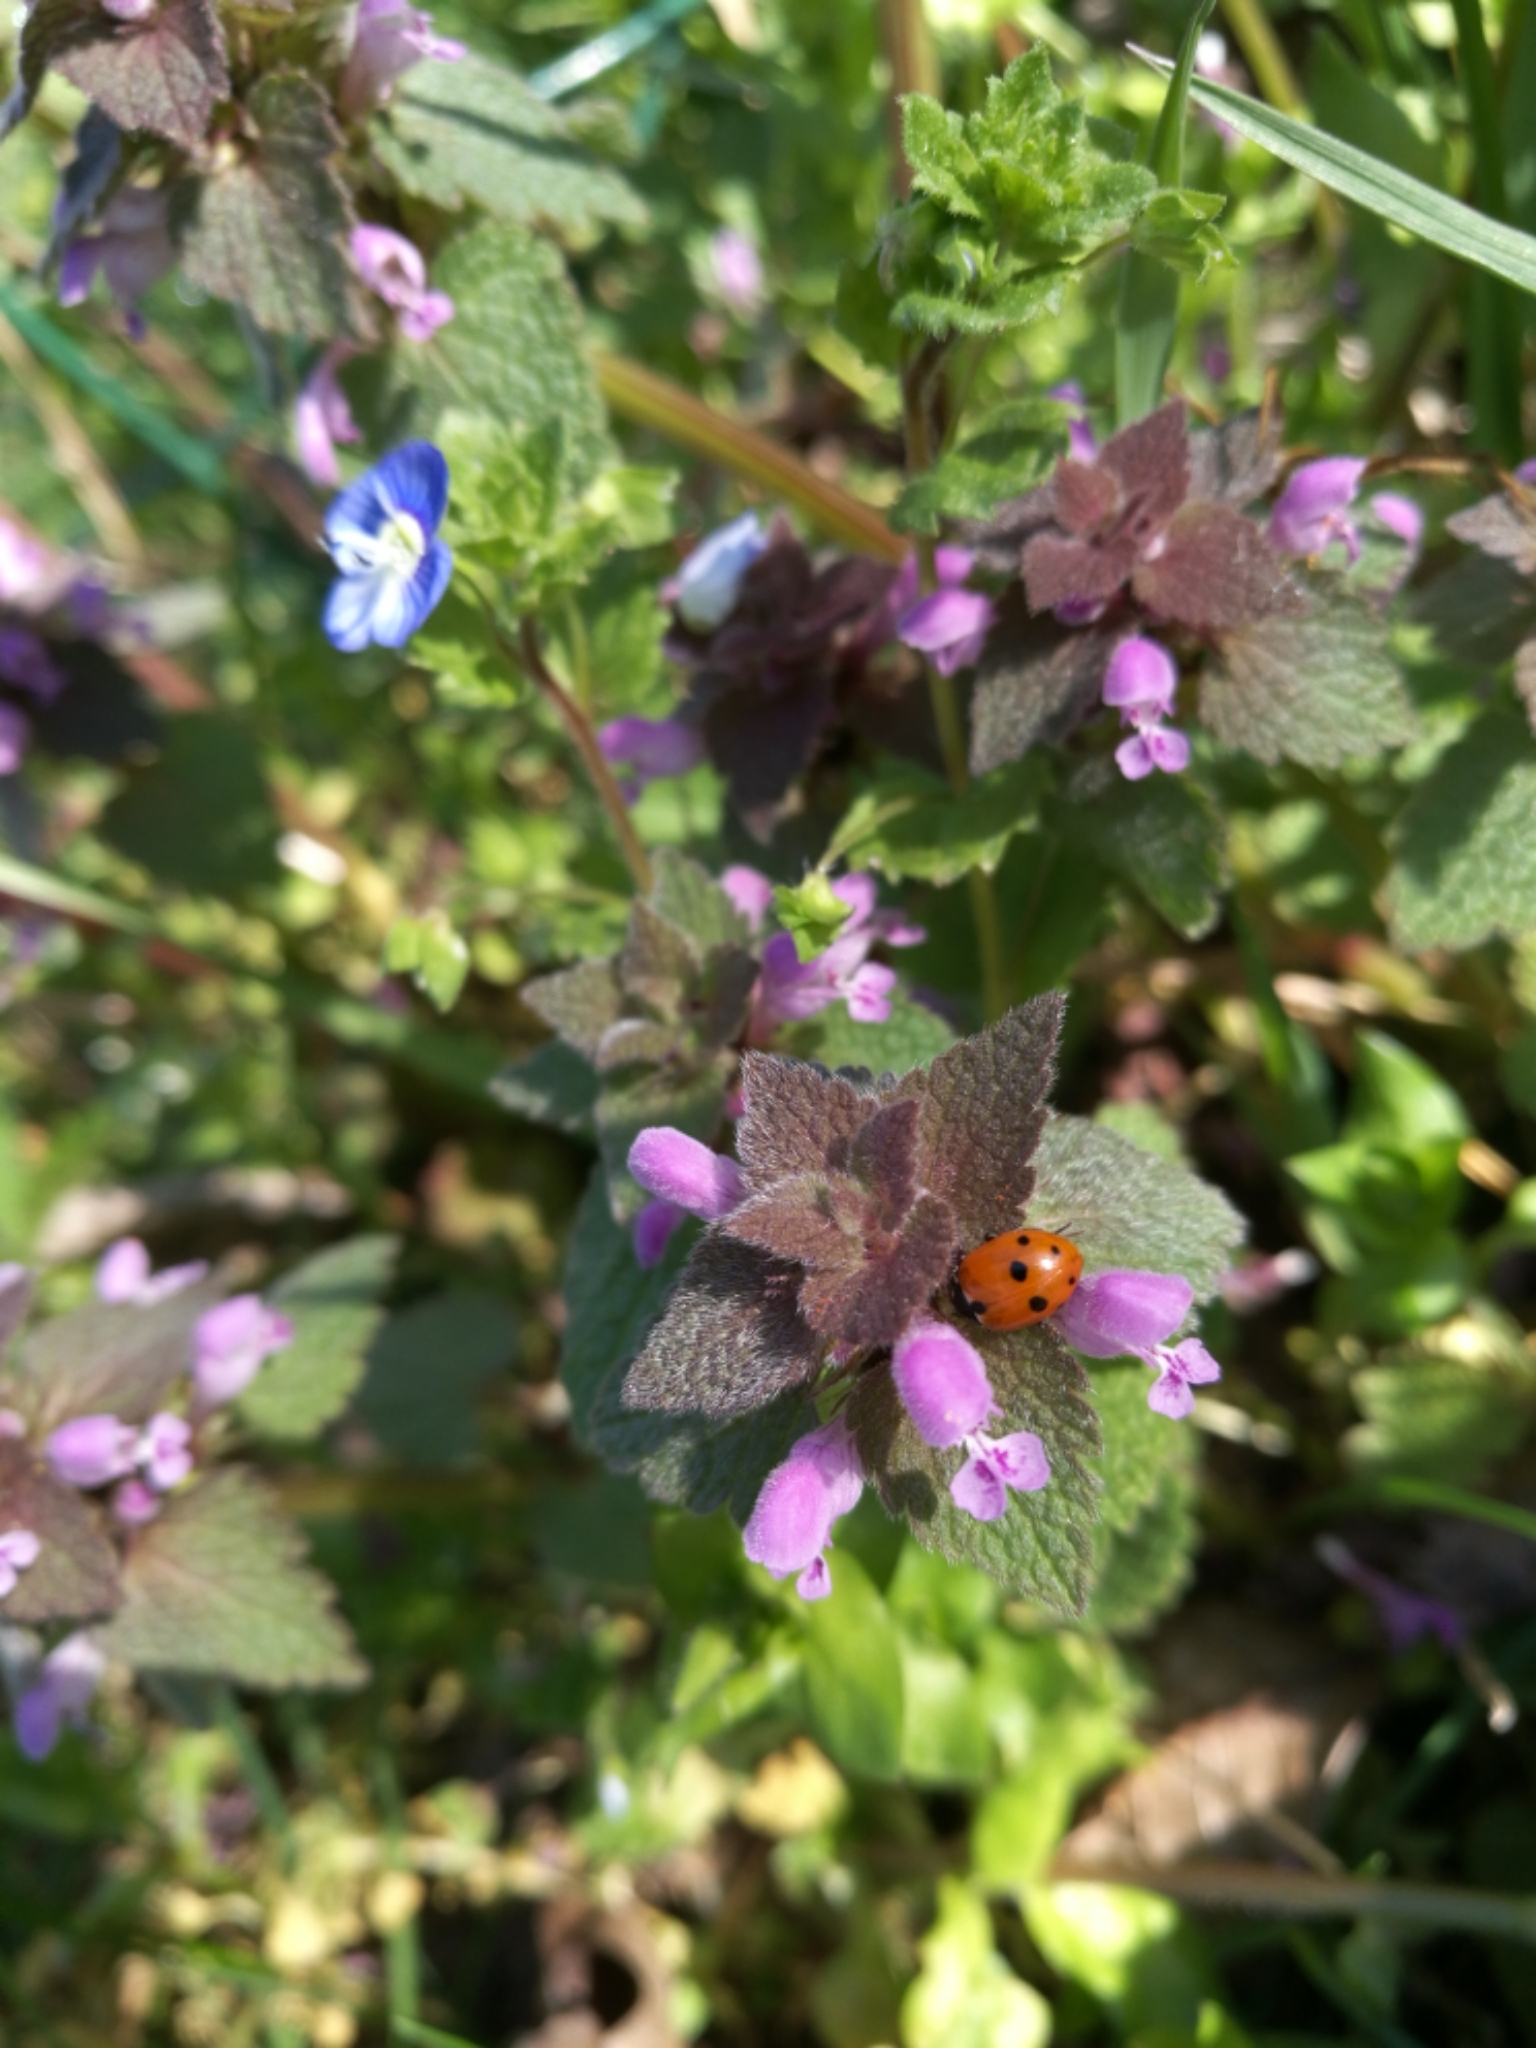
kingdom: Animalia
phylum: Arthropoda
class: Insecta
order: Coleoptera
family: Coccinellidae
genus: Hippodamia
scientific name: Hippodamia variegata
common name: Ladybird beetle
